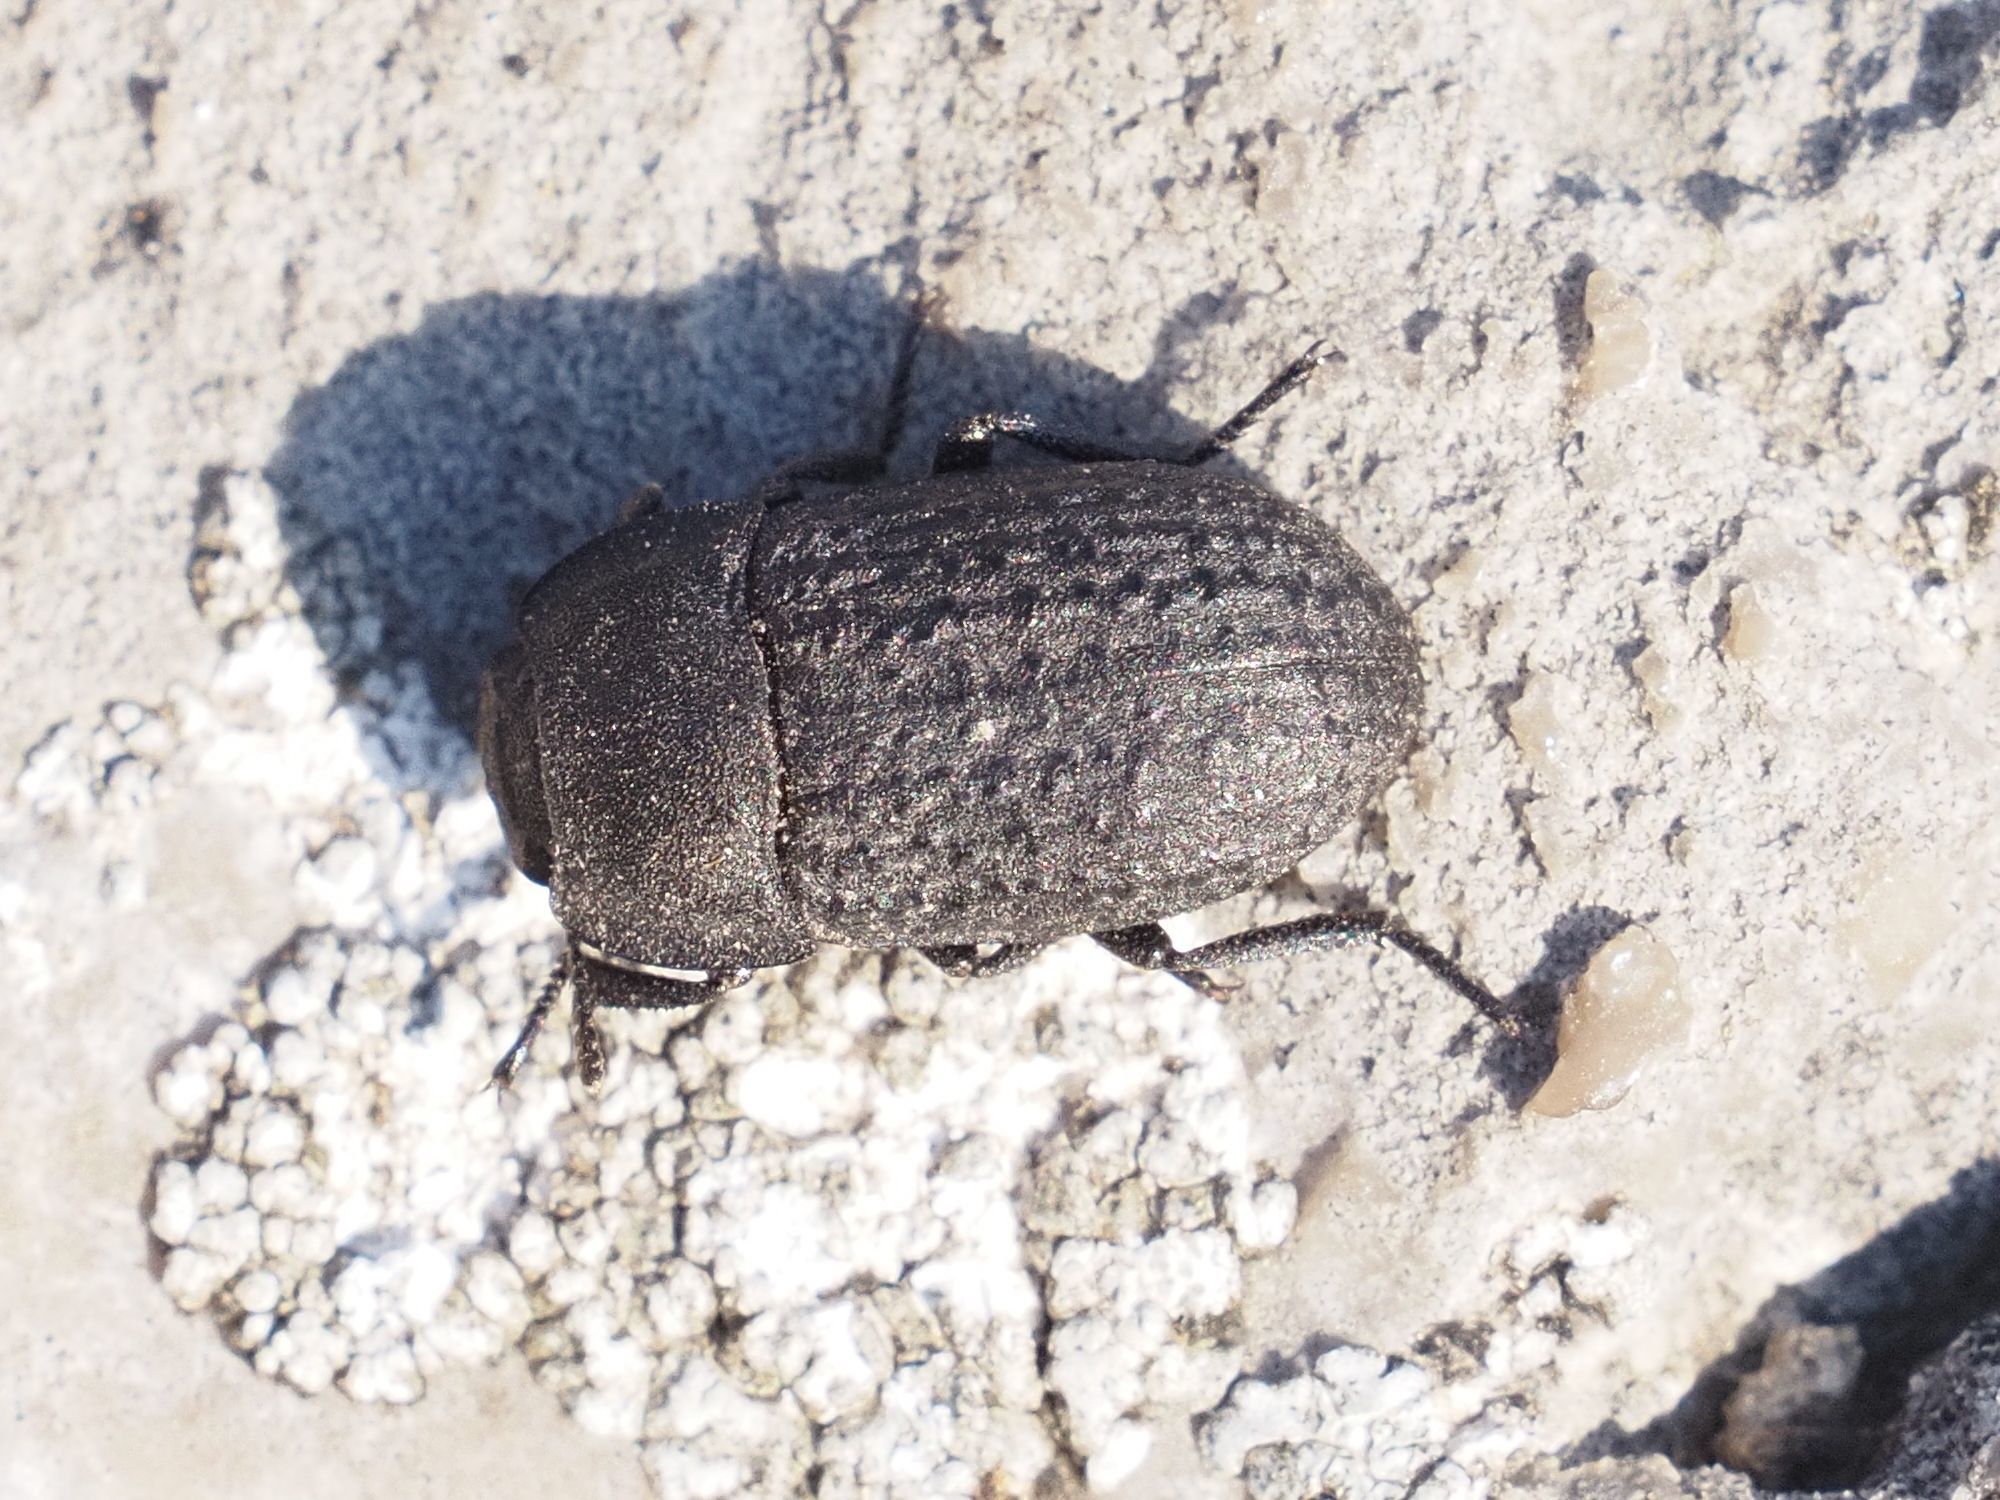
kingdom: Animalia
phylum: Arthropoda
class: Insecta
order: Coleoptera
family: Tenebrionidae
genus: Opatrum
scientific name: Opatrum sabulosum
